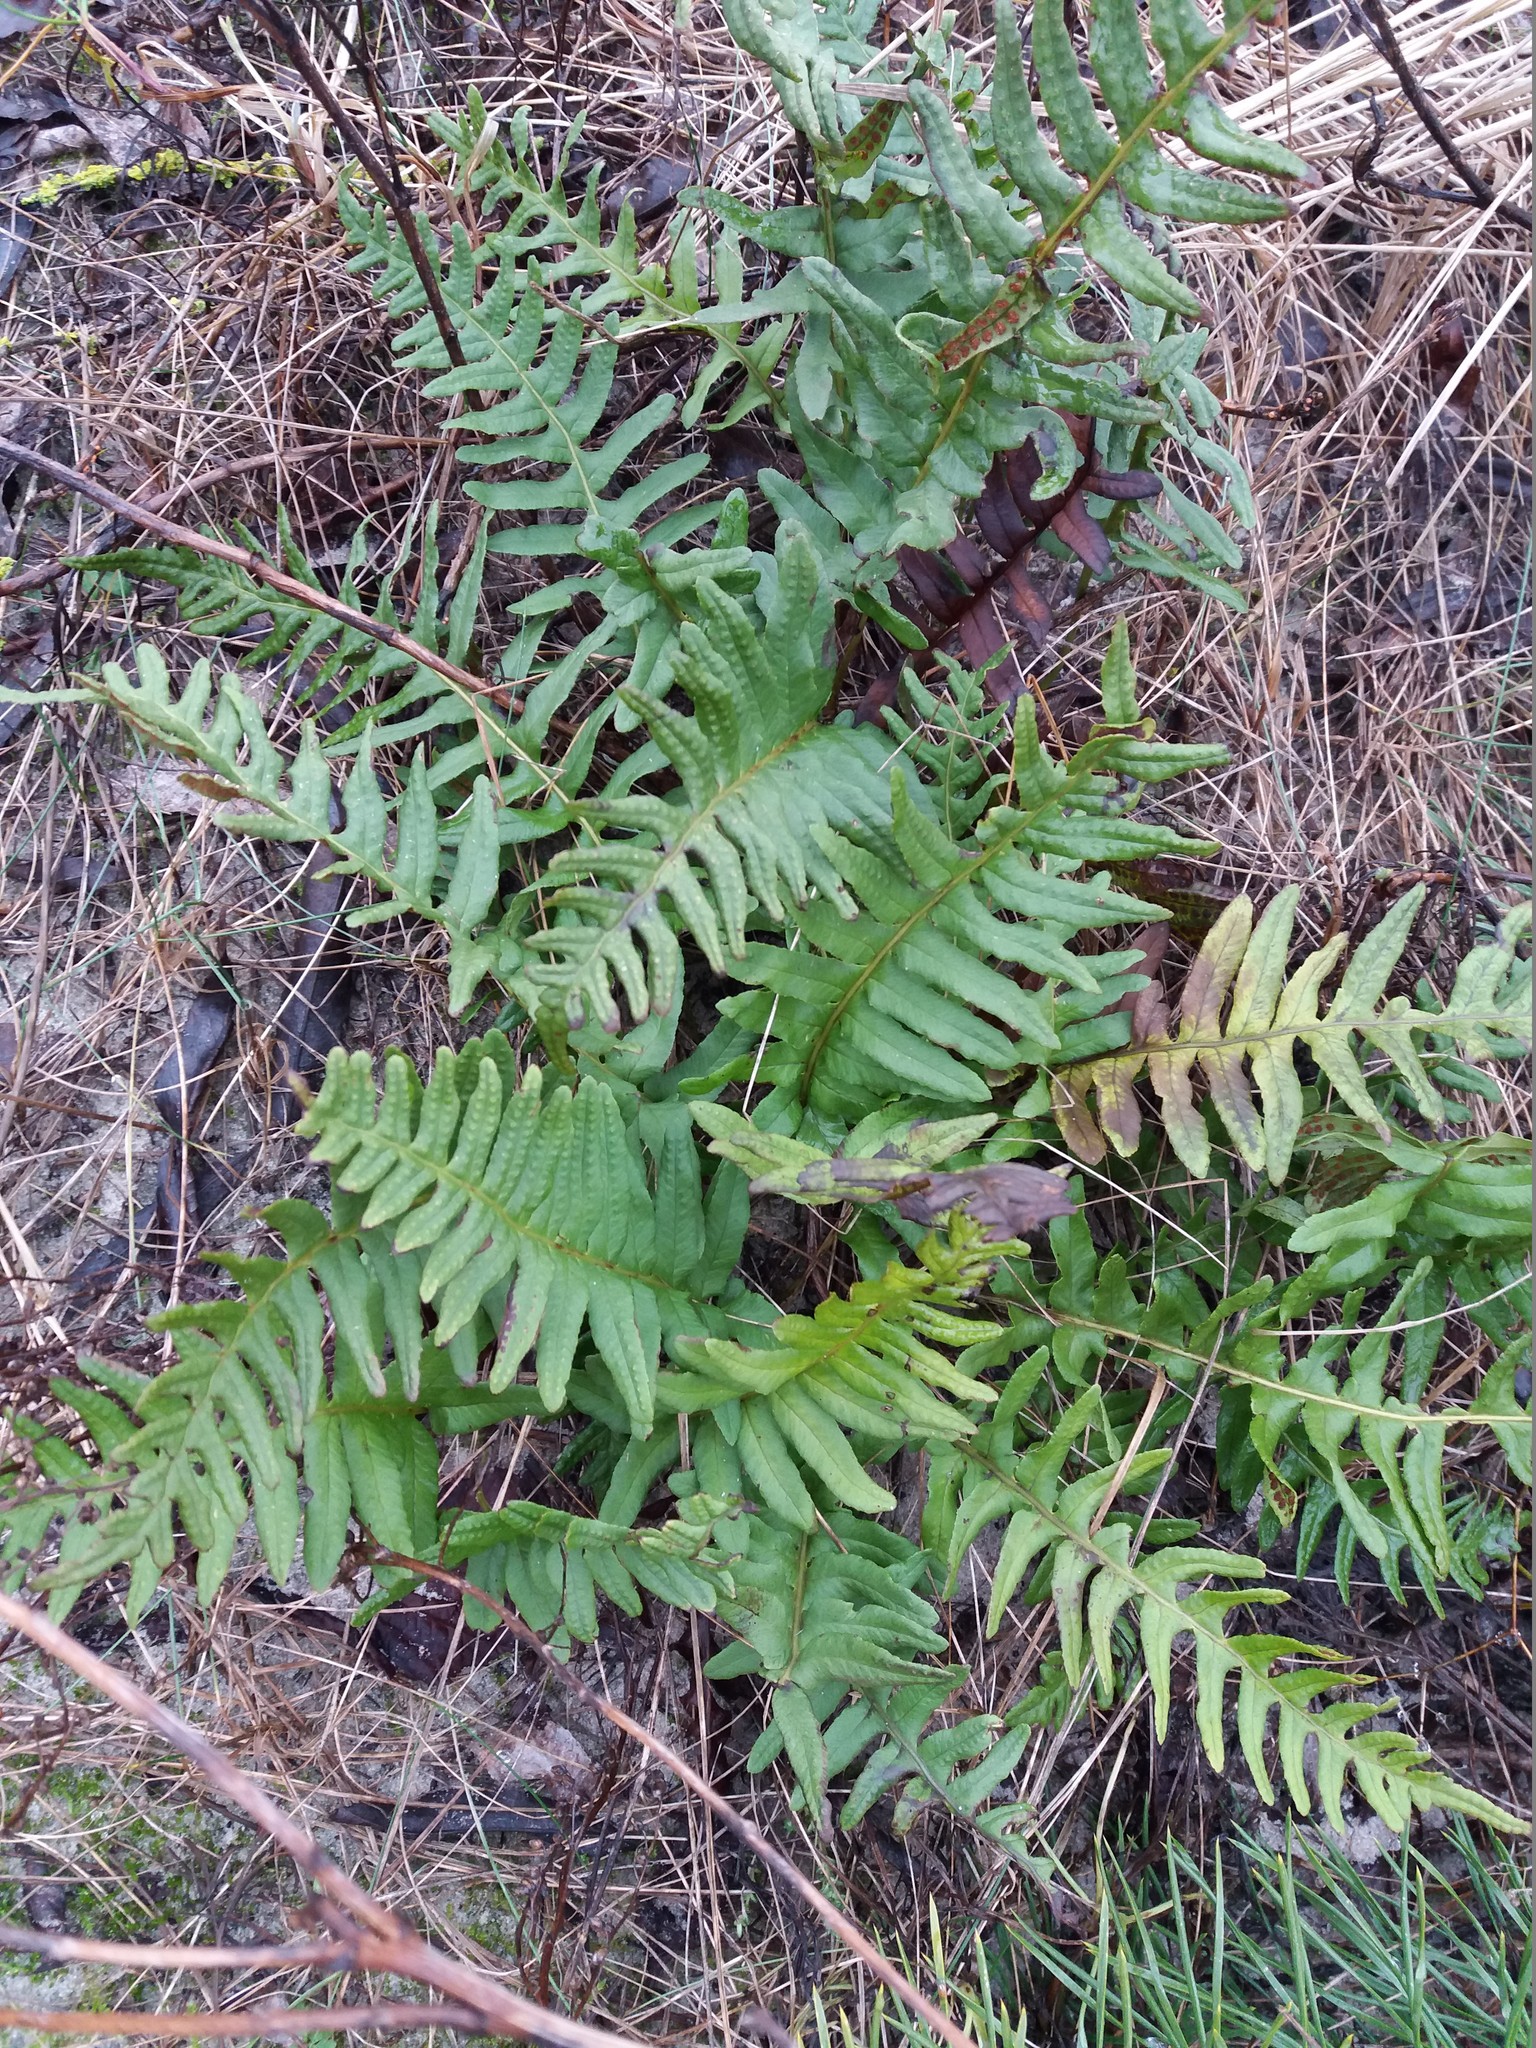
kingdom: Plantae
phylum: Tracheophyta
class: Polypodiopsida
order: Polypodiales
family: Polypodiaceae
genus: Polypodium
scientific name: Polypodium vulgare
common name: Common polypody
